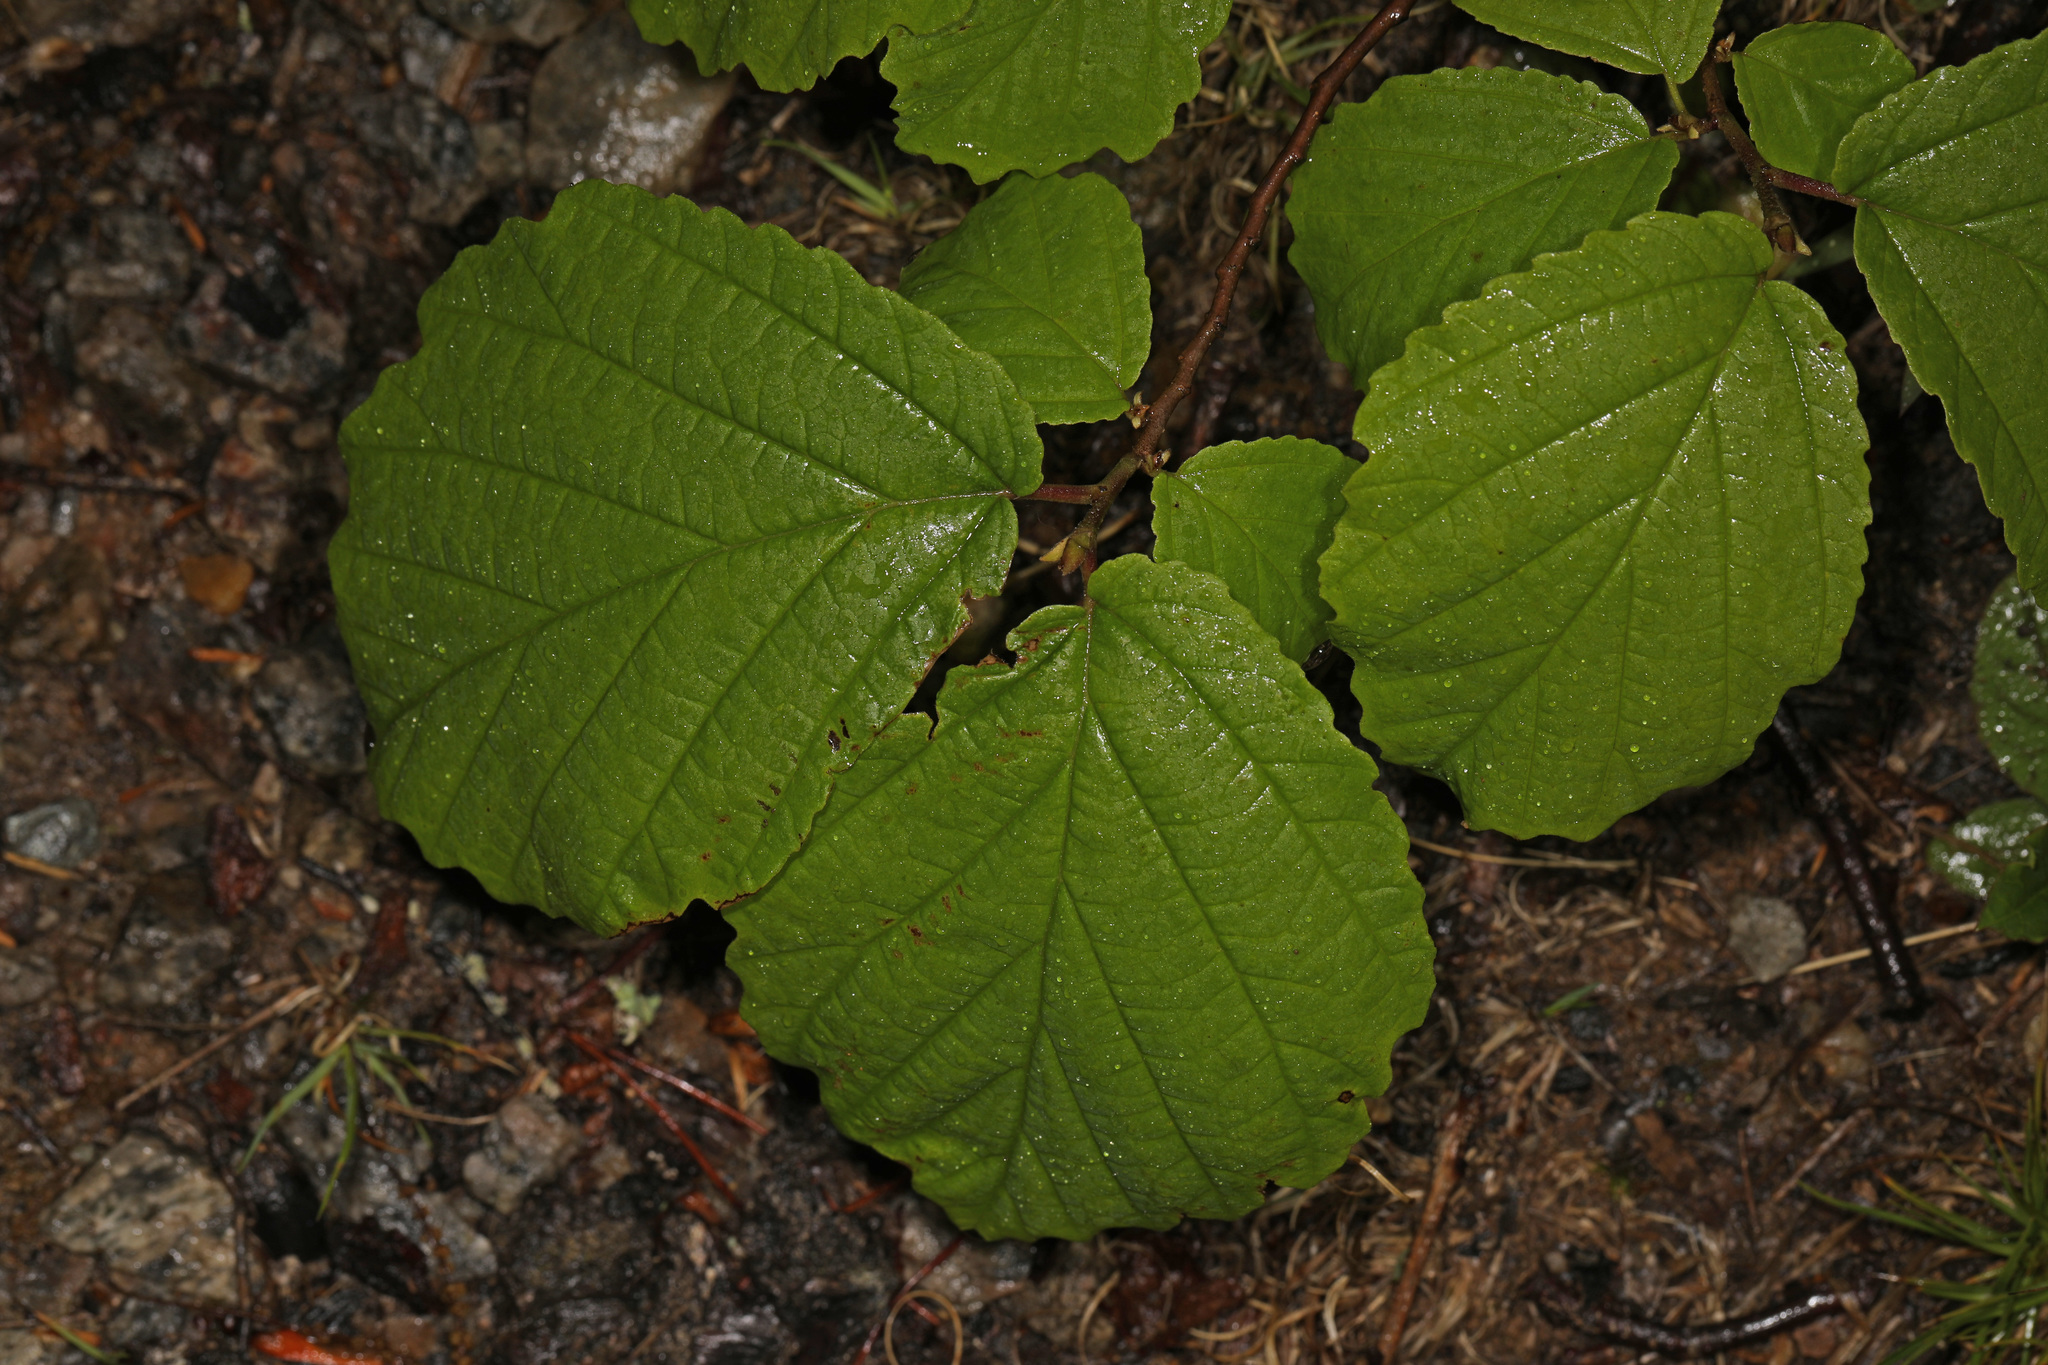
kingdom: Plantae
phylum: Tracheophyta
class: Magnoliopsida
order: Saxifragales
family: Hamamelidaceae
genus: Hamamelis
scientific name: Hamamelis virginiana
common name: Witch-hazel
